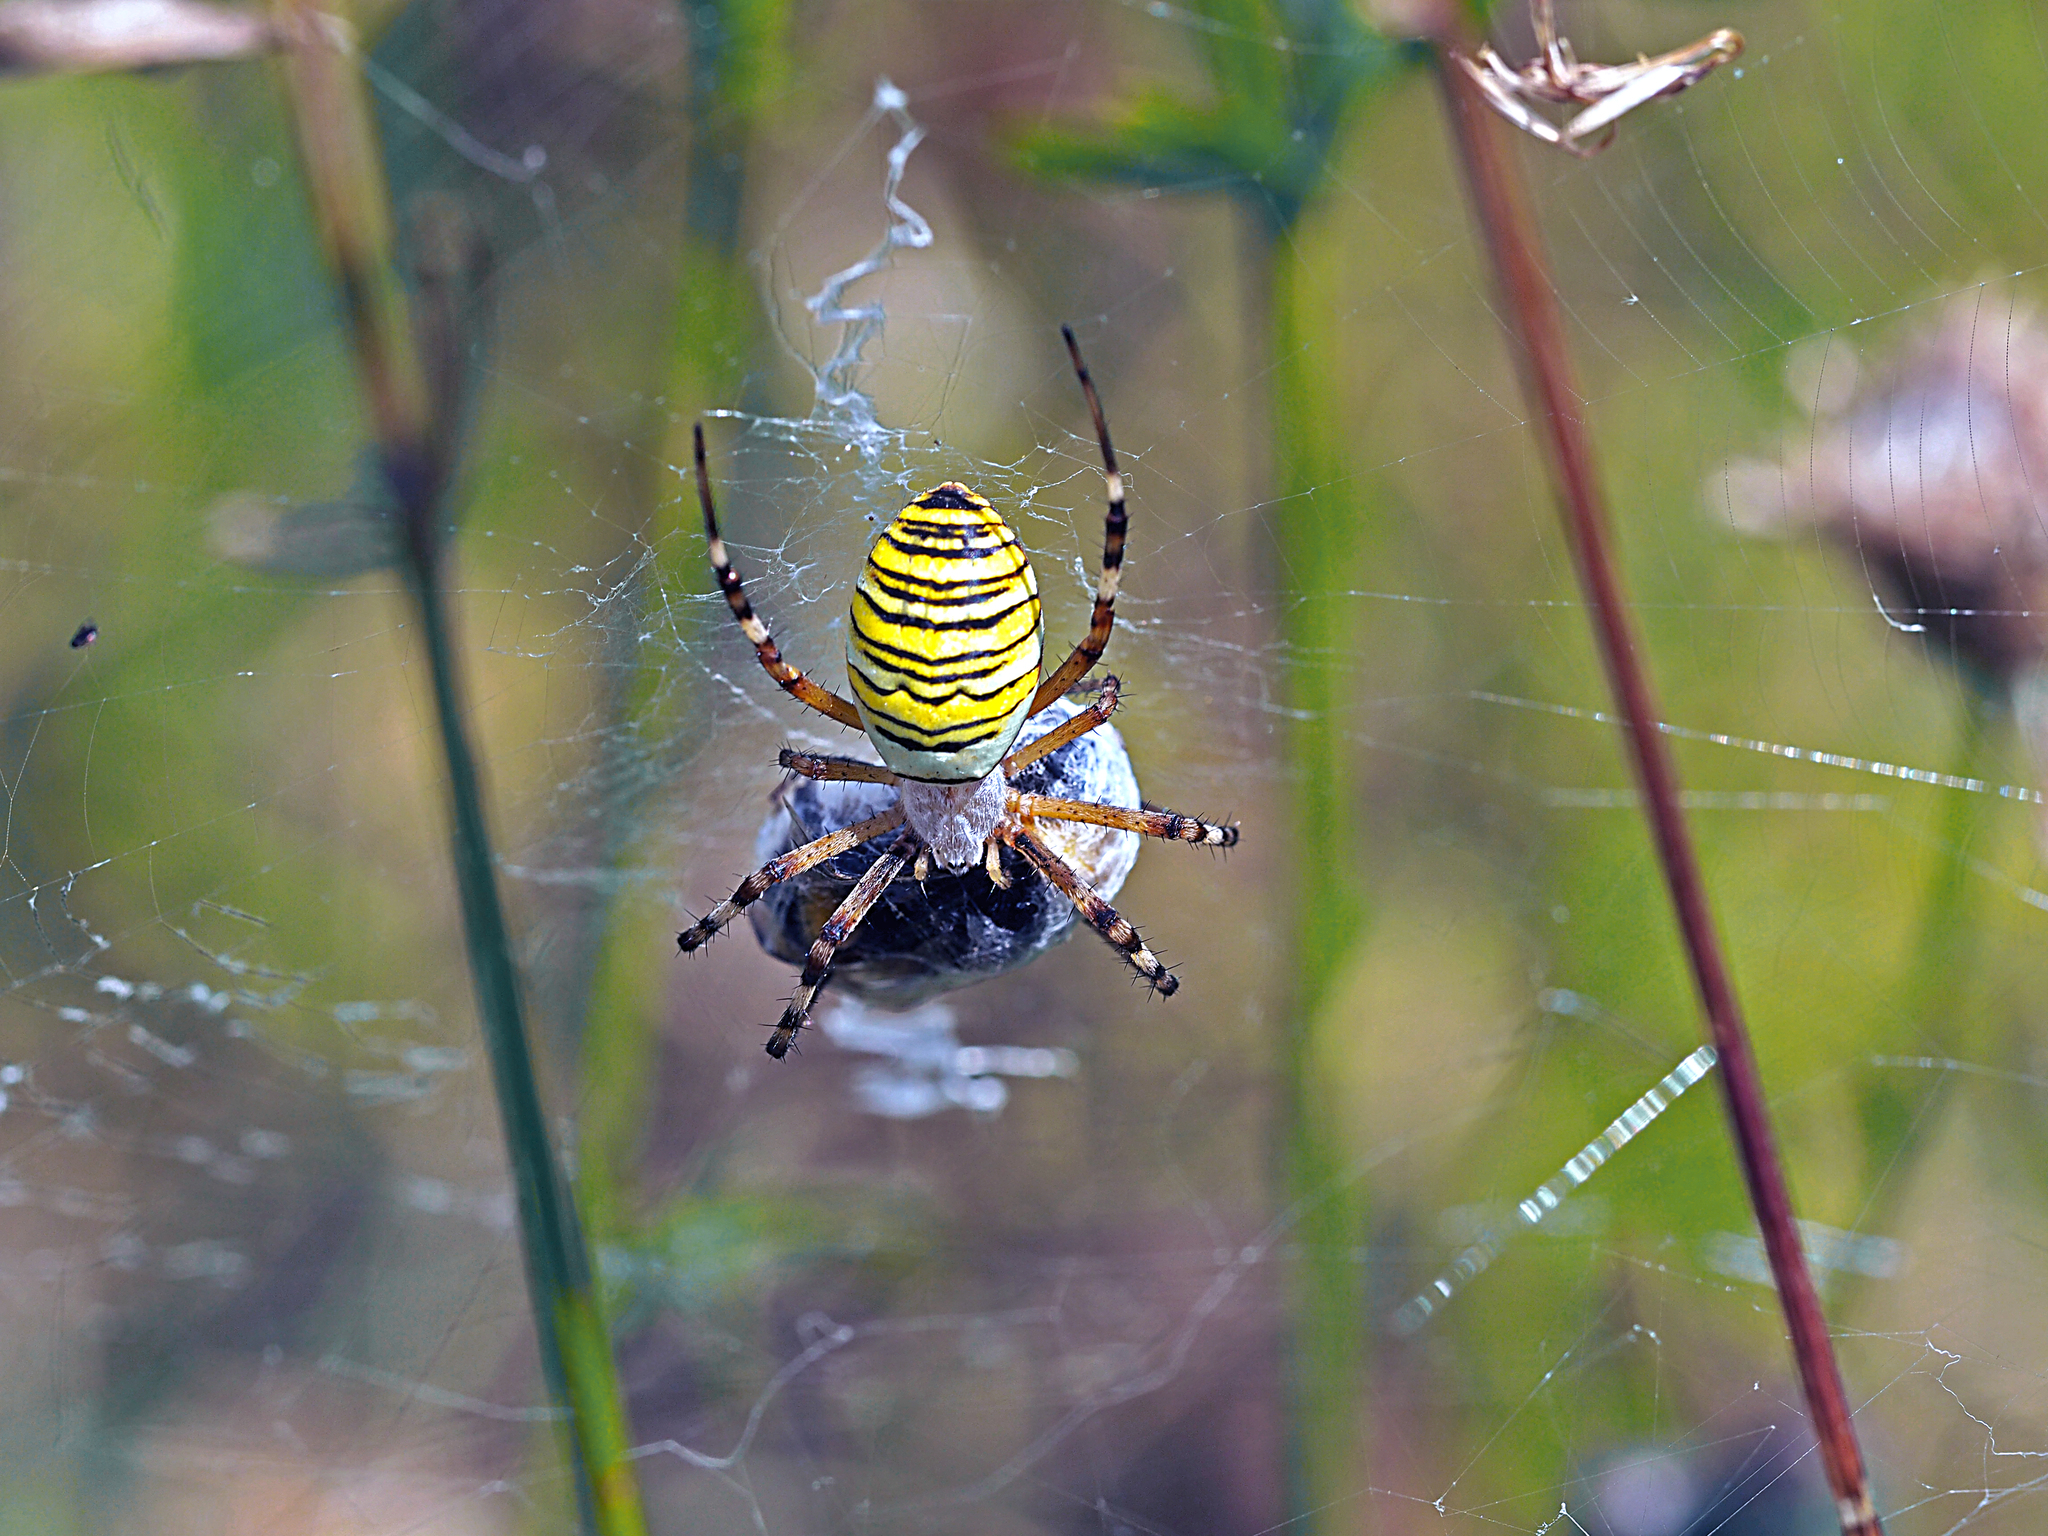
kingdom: Animalia
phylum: Arthropoda
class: Arachnida
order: Araneae
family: Araneidae
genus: Argiope
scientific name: Argiope bruennichi
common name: Wasp spider
